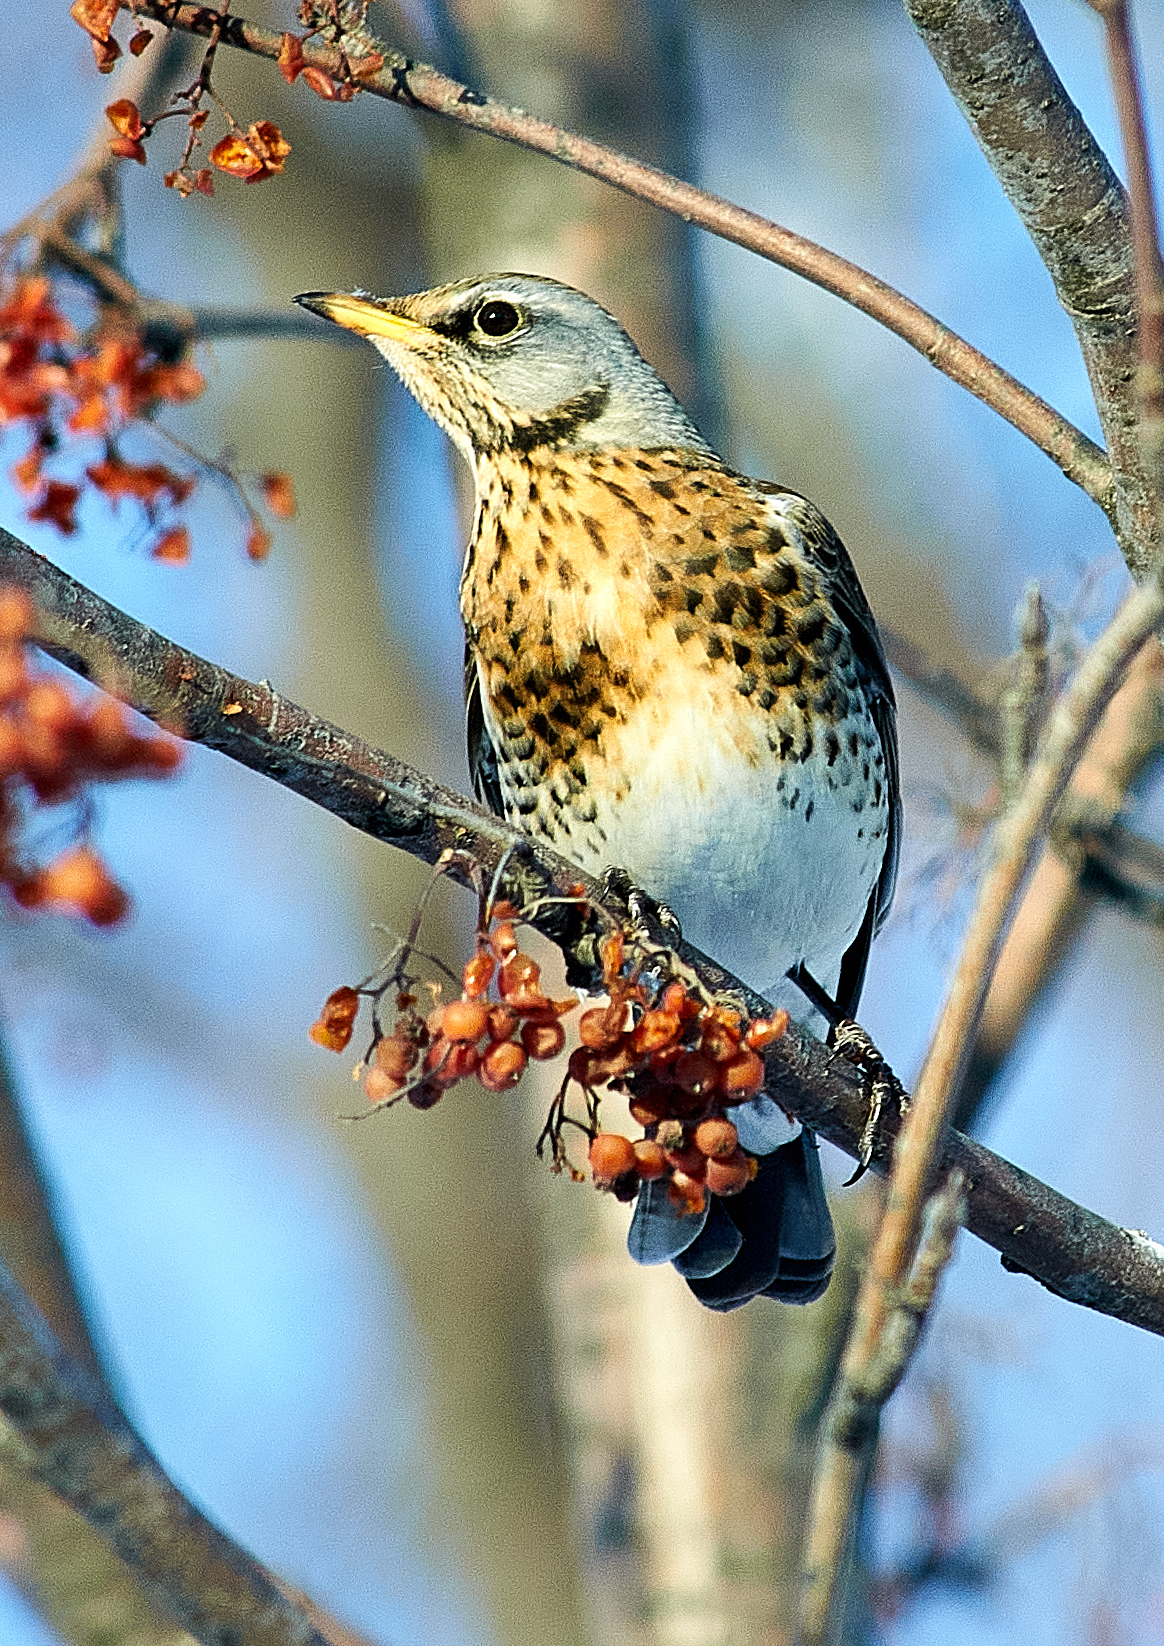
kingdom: Animalia
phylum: Chordata
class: Aves
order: Passeriformes
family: Turdidae
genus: Turdus
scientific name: Turdus pilaris
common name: Fieldfare
